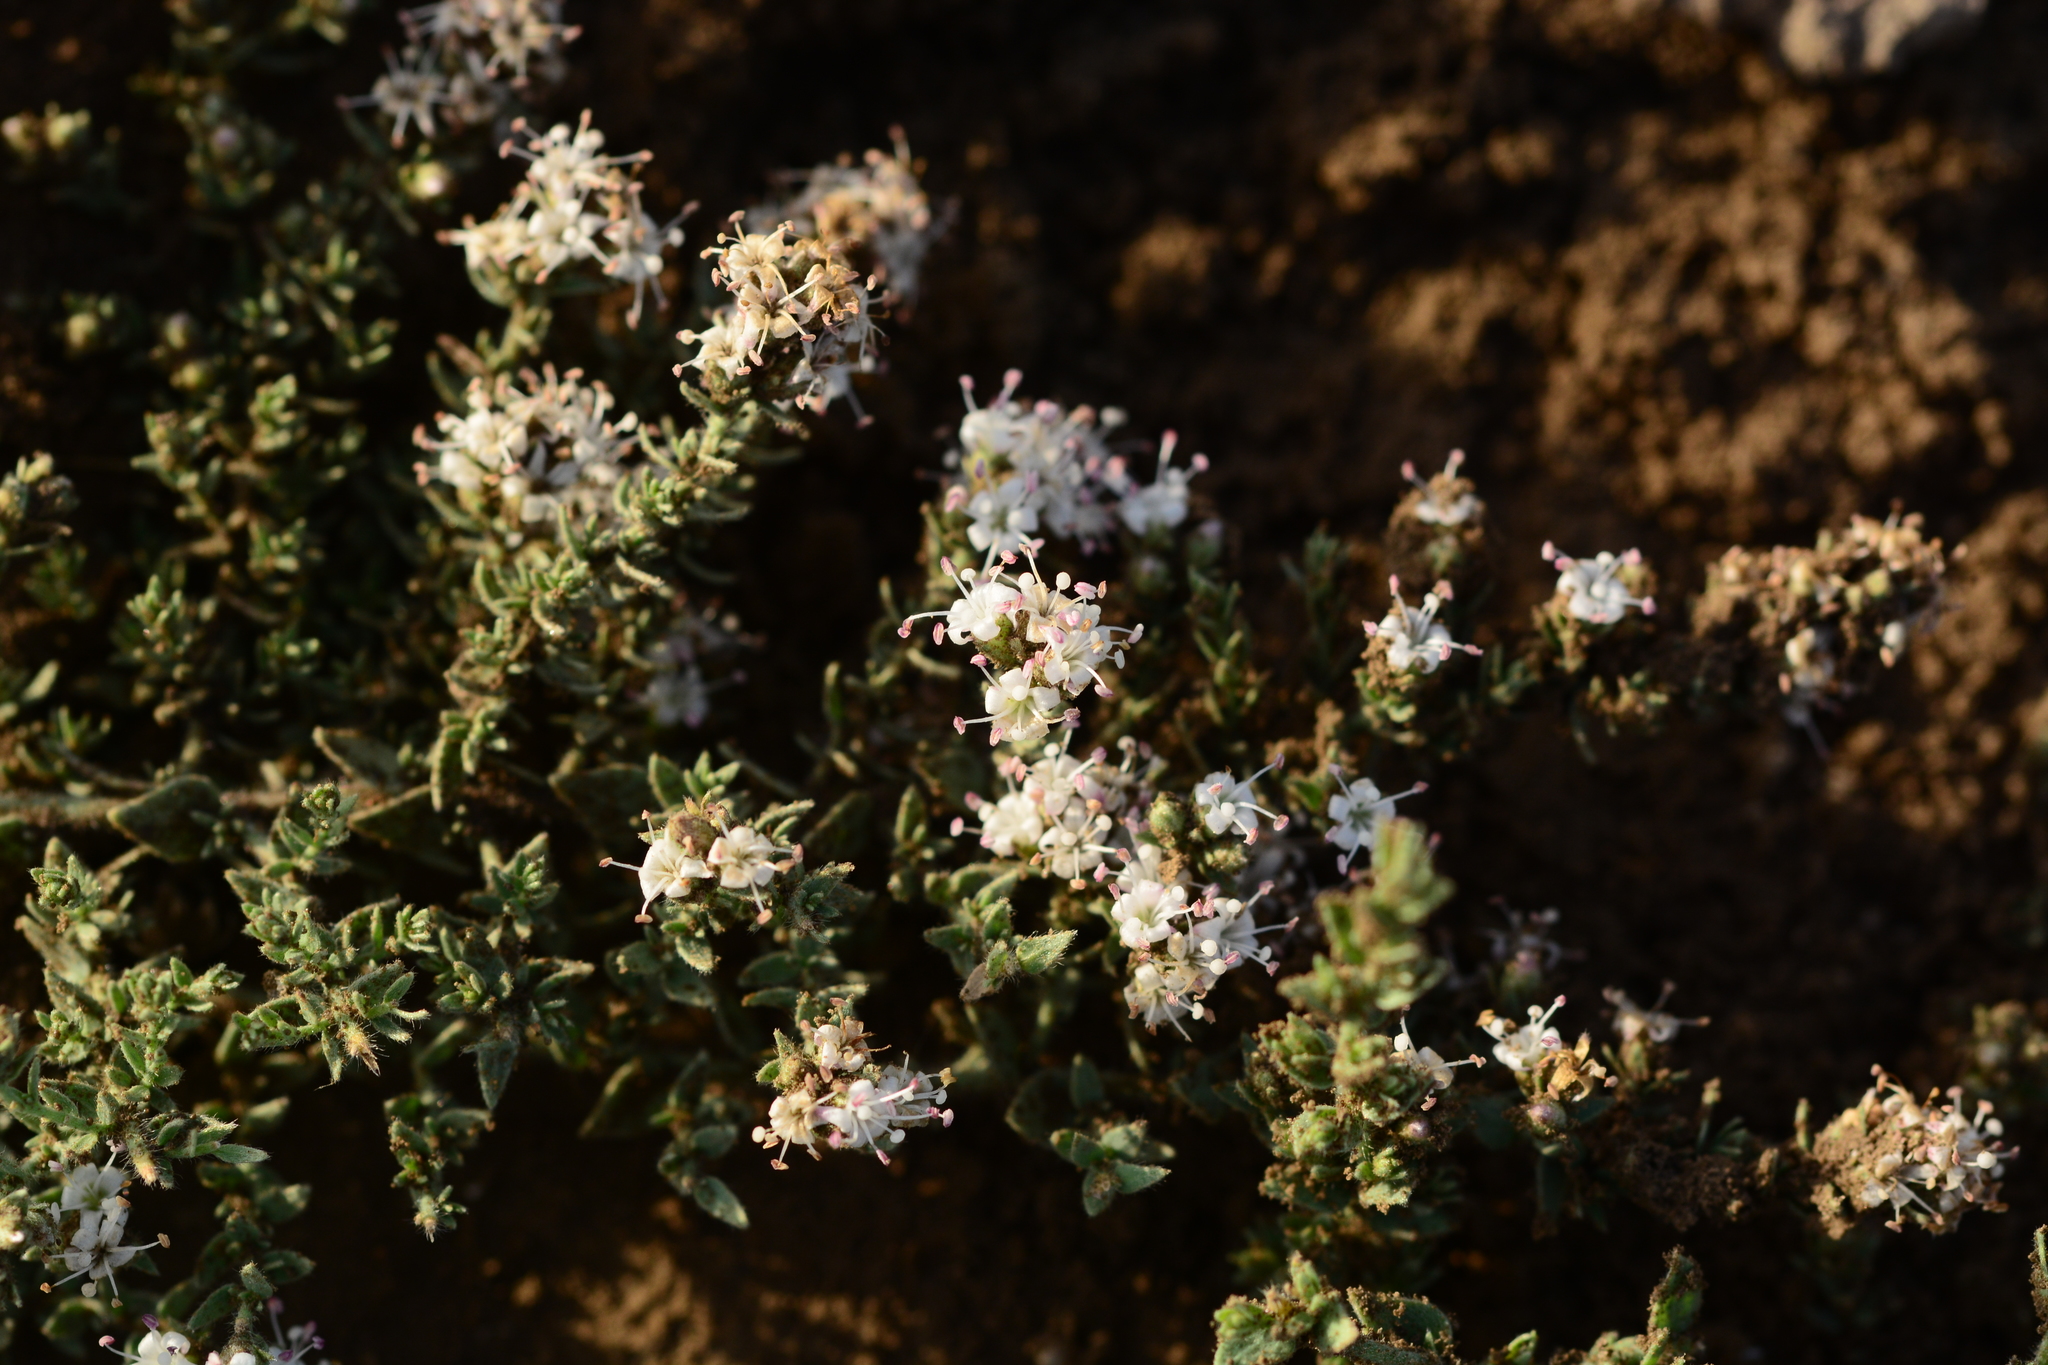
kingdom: Plantae
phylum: Tracheophyta
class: Magnoliopsida
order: Solanales
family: Convolvulaceae
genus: Cressa
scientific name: Cressa cretica
